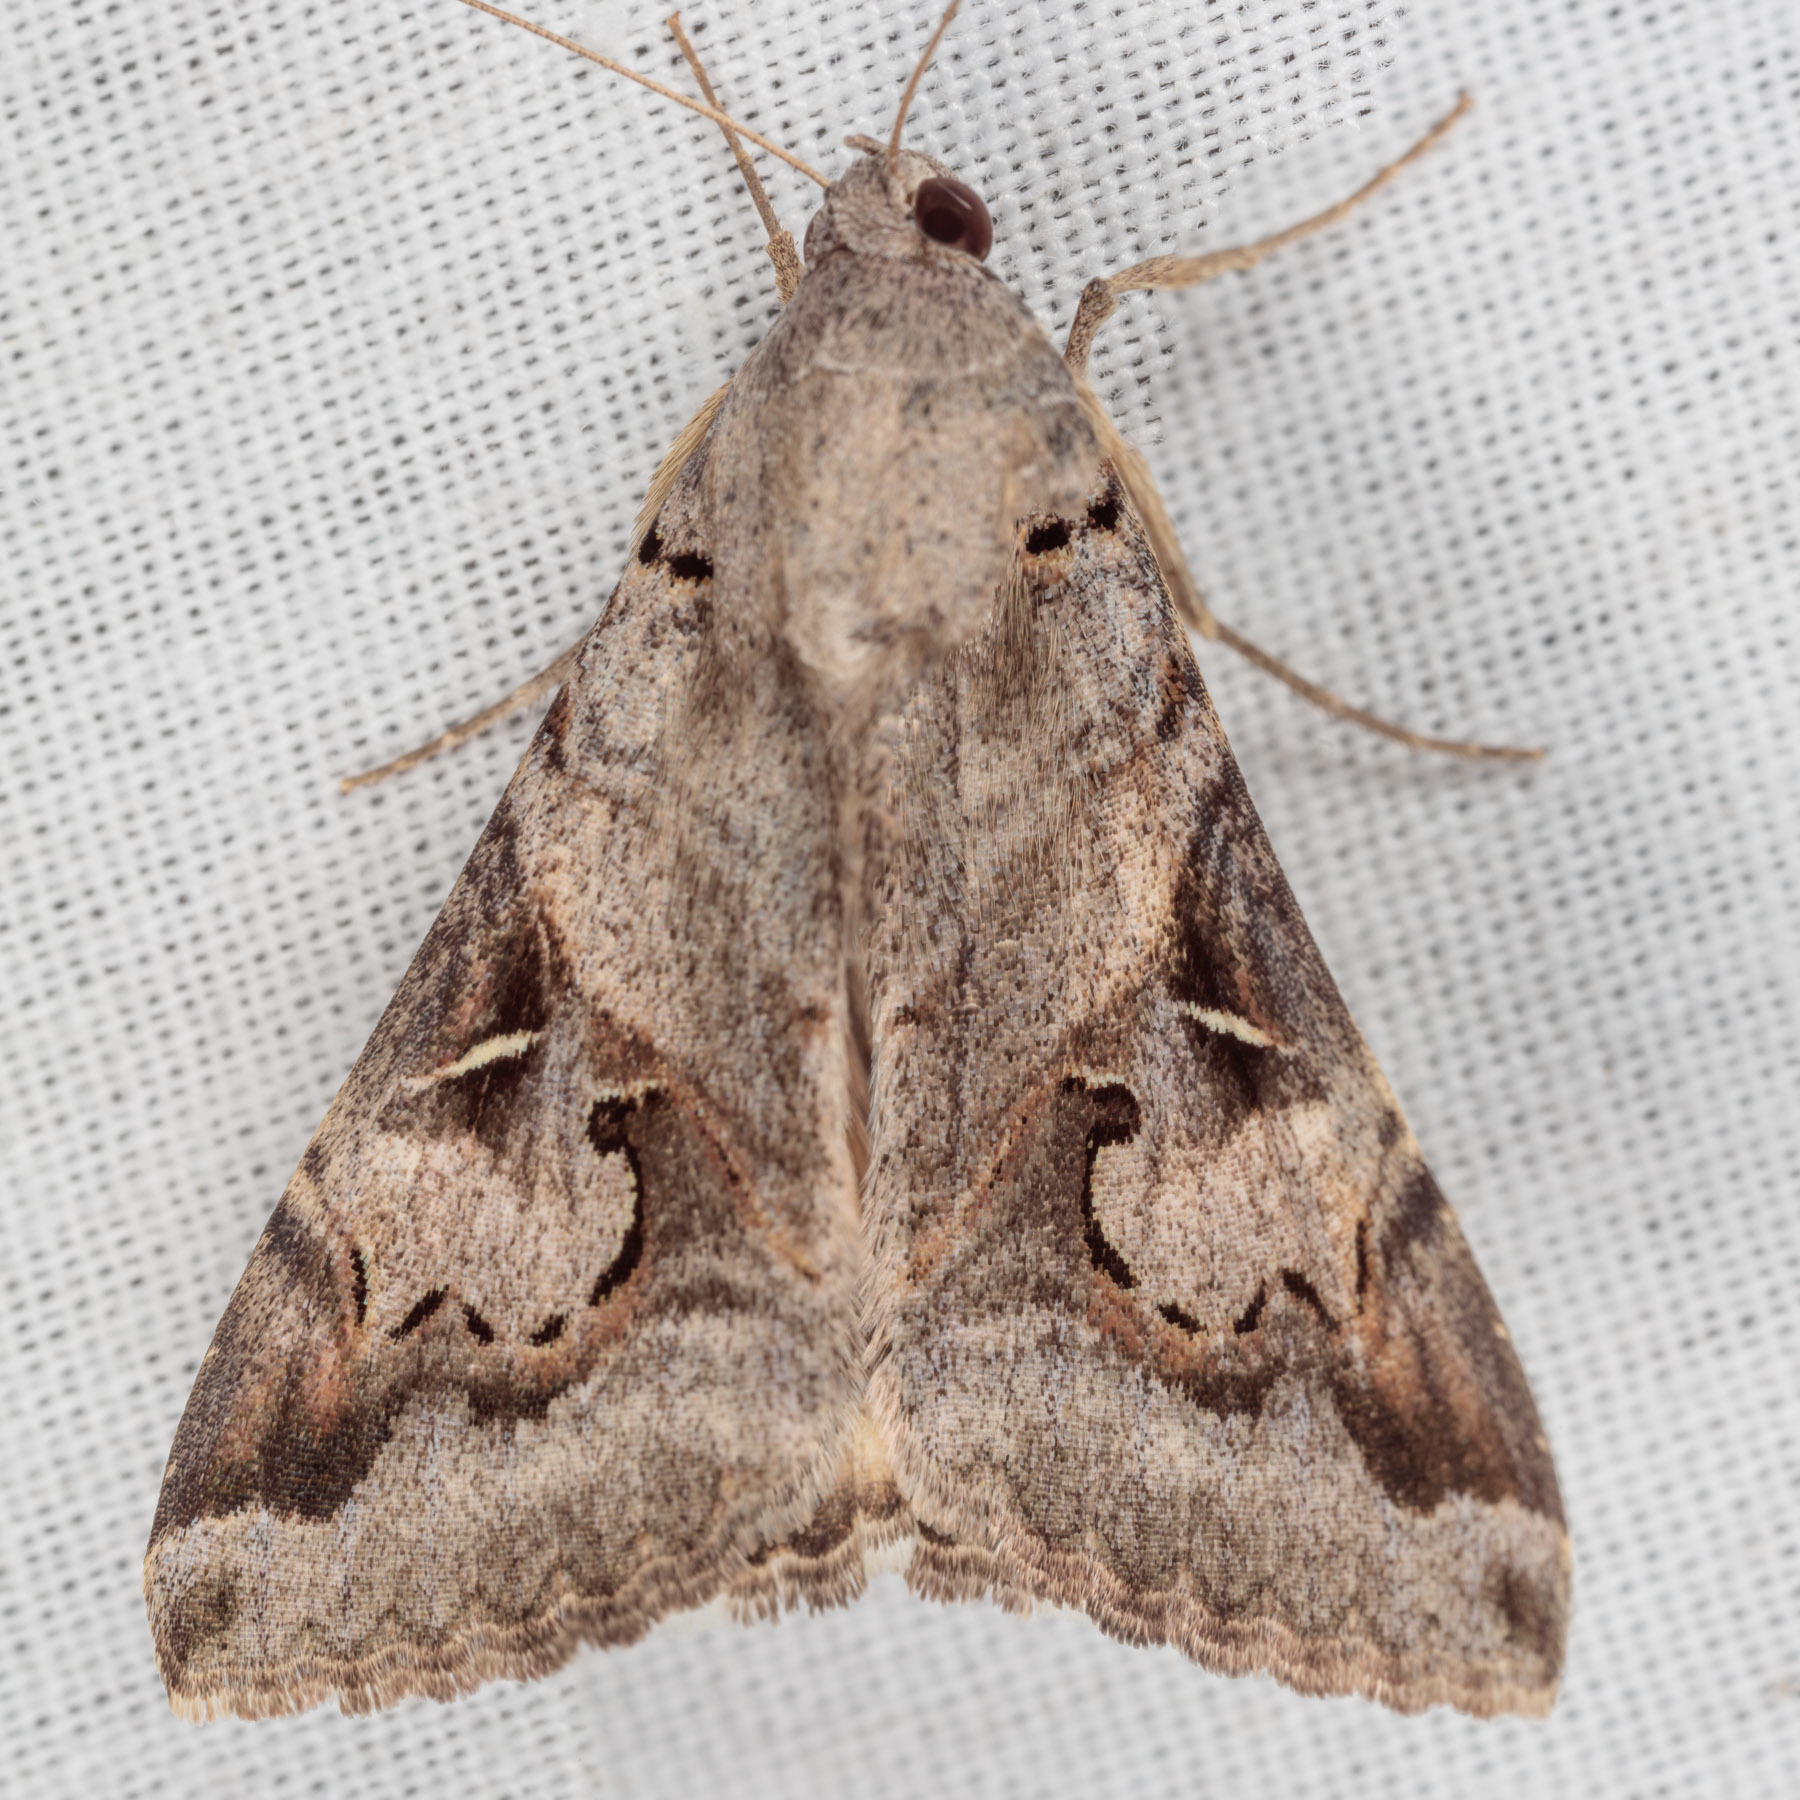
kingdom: Animalia
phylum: Arthropoda
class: Insecta
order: Lepidoptera
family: Erebidae
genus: Melipotis
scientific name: Melipotis indomita
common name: Moth
